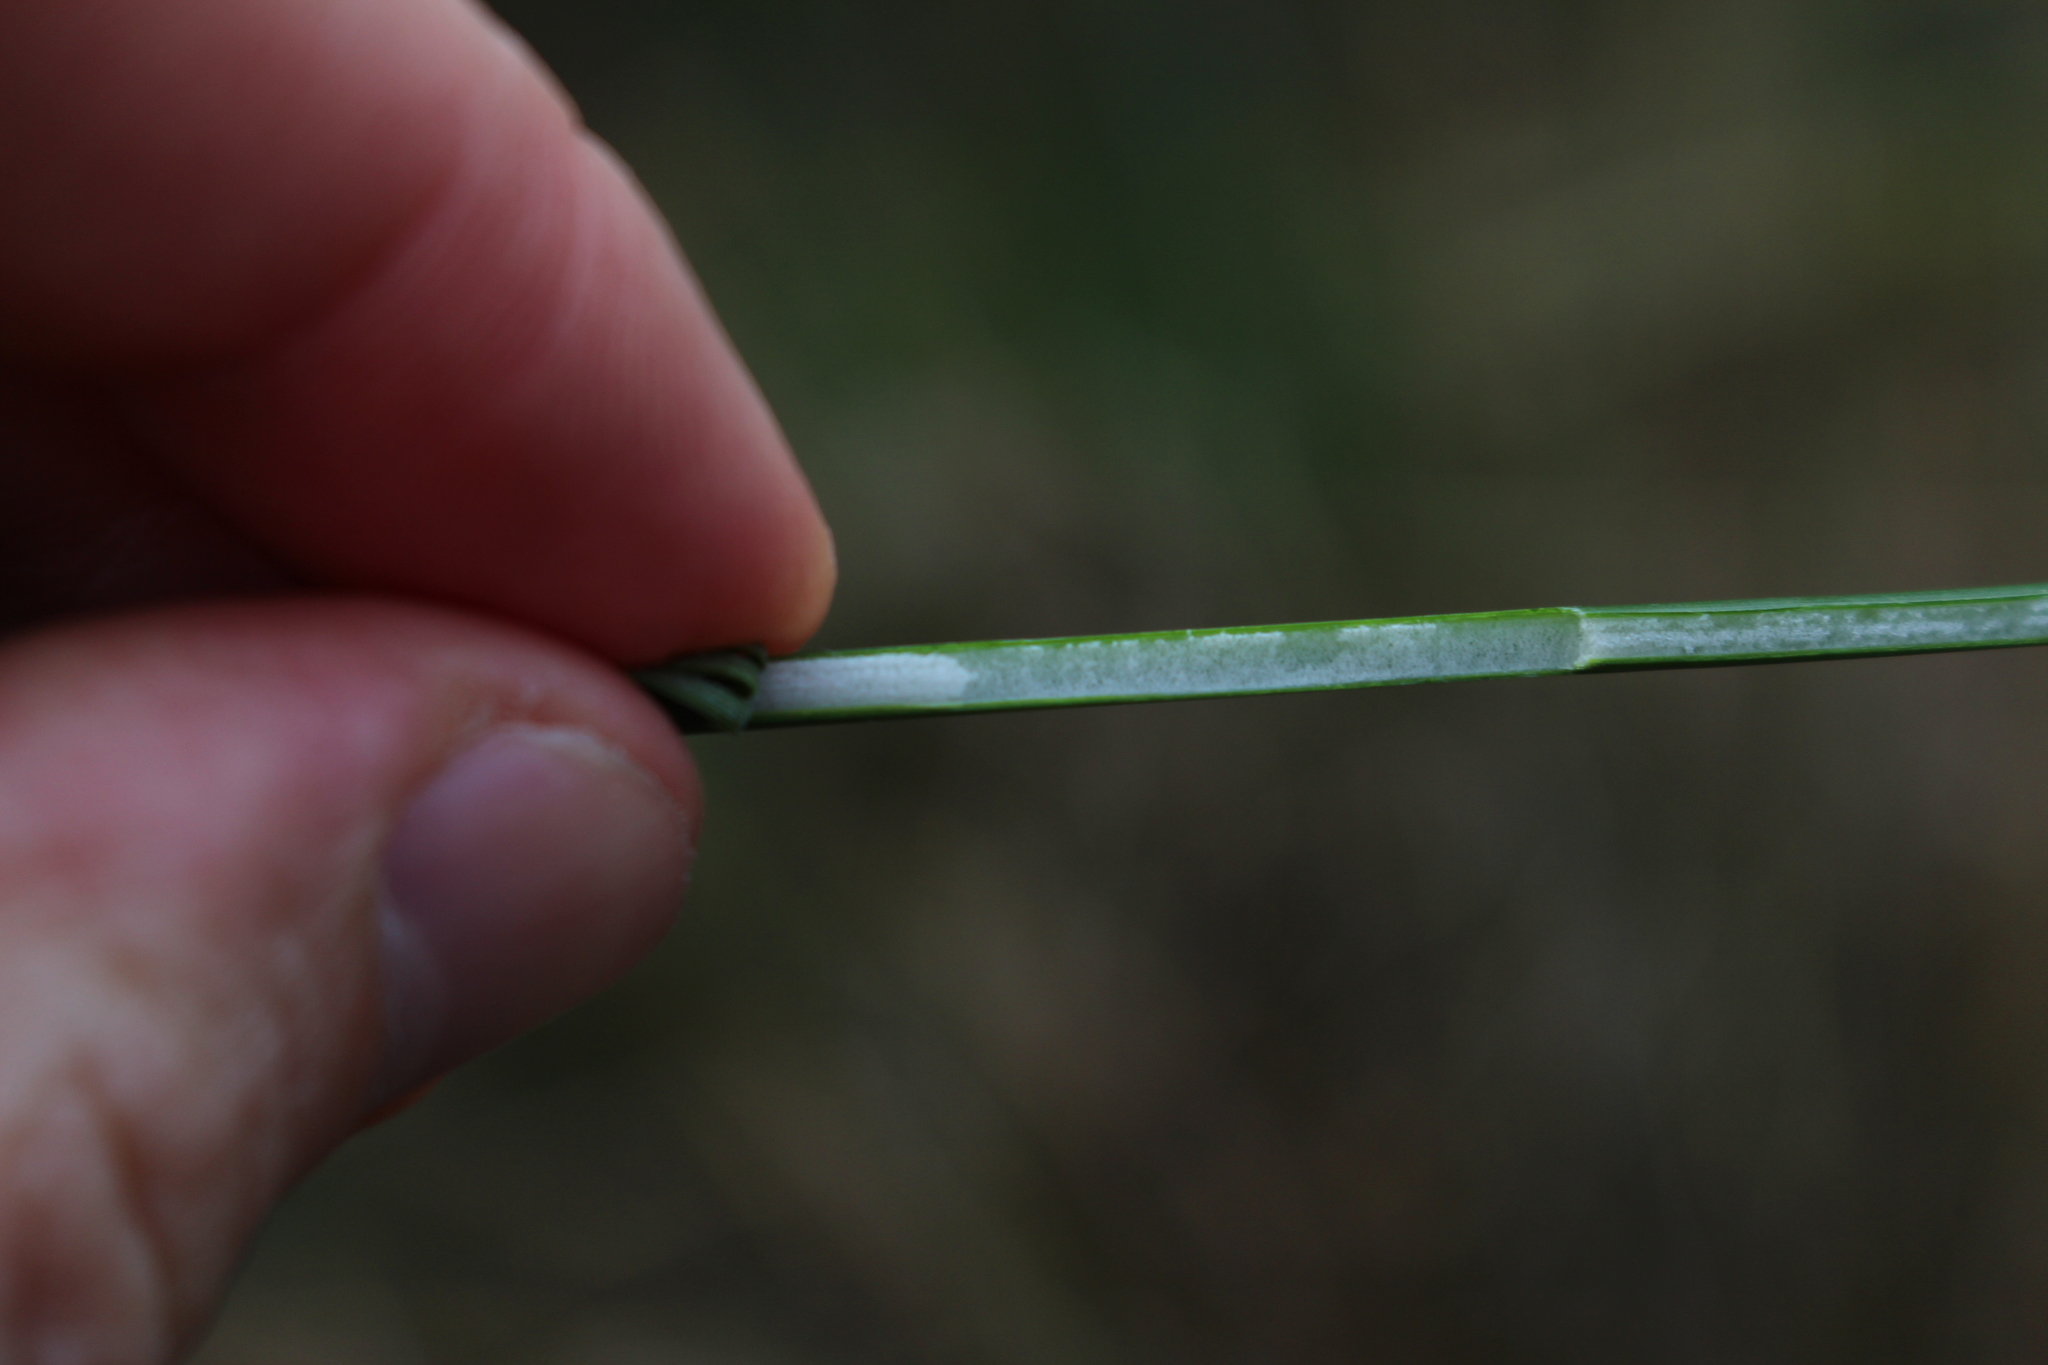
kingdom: Plantae
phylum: Tracheophyta
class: Liliopsida
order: Poales
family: Juncaceae
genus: Juncus
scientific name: Juncus effusus
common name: Soft rush
